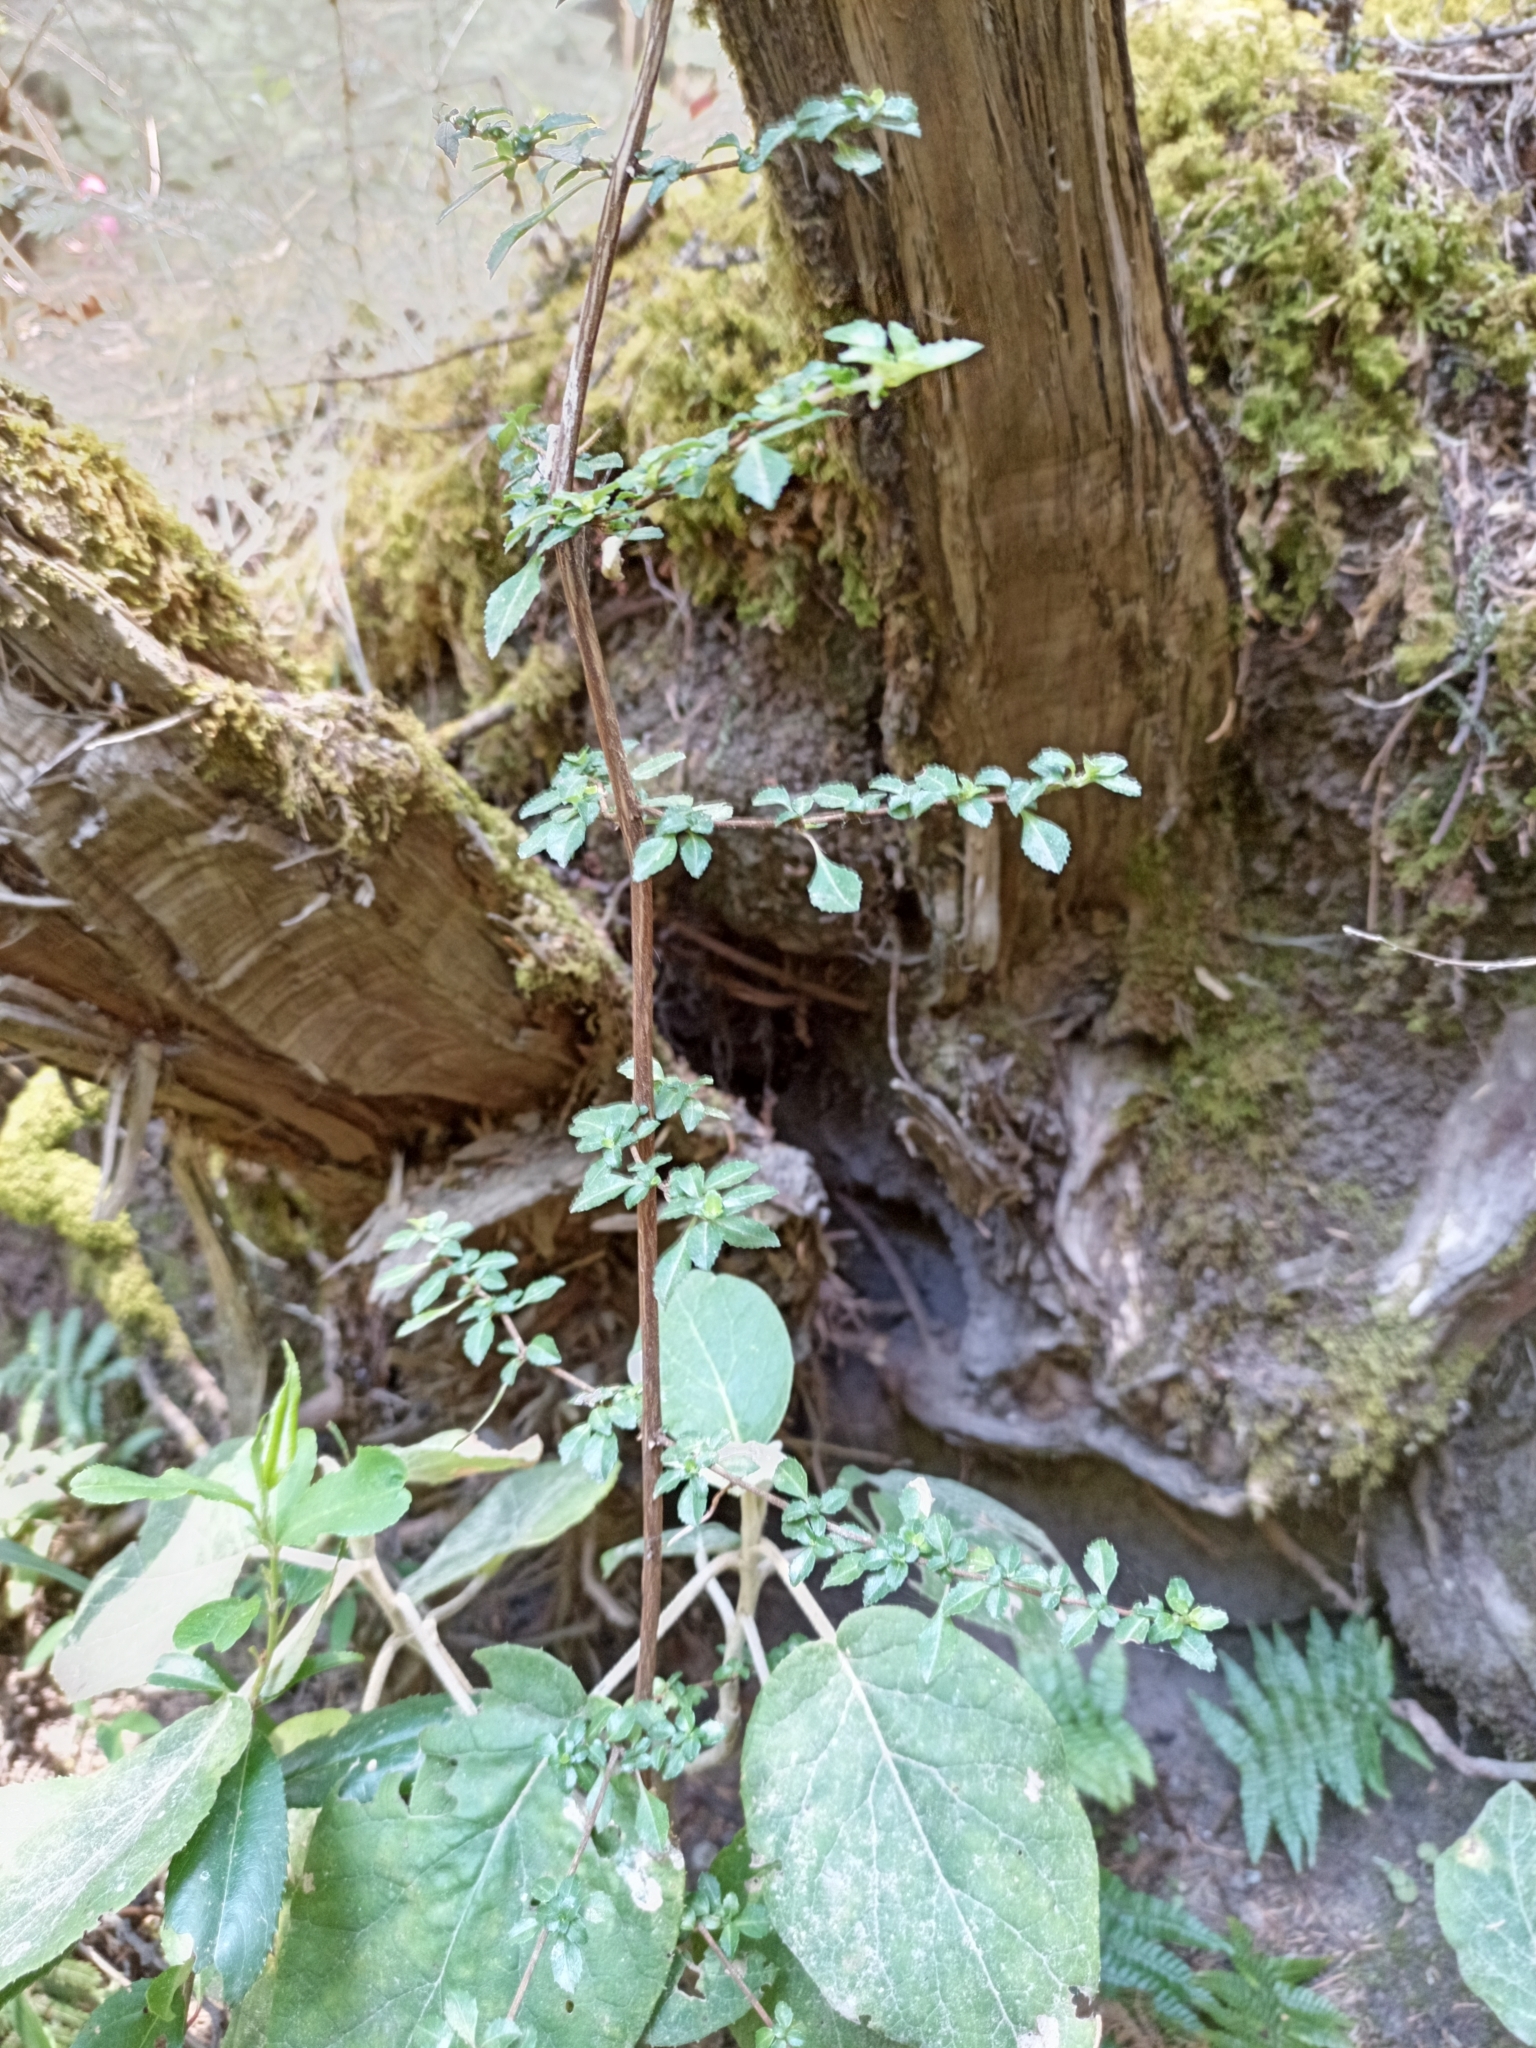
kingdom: Plantae
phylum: Tracheophyta
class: Magnoliopsida
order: Myrtales
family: Onagraceae
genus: Fuchsia
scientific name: Fuchsia microphylla
